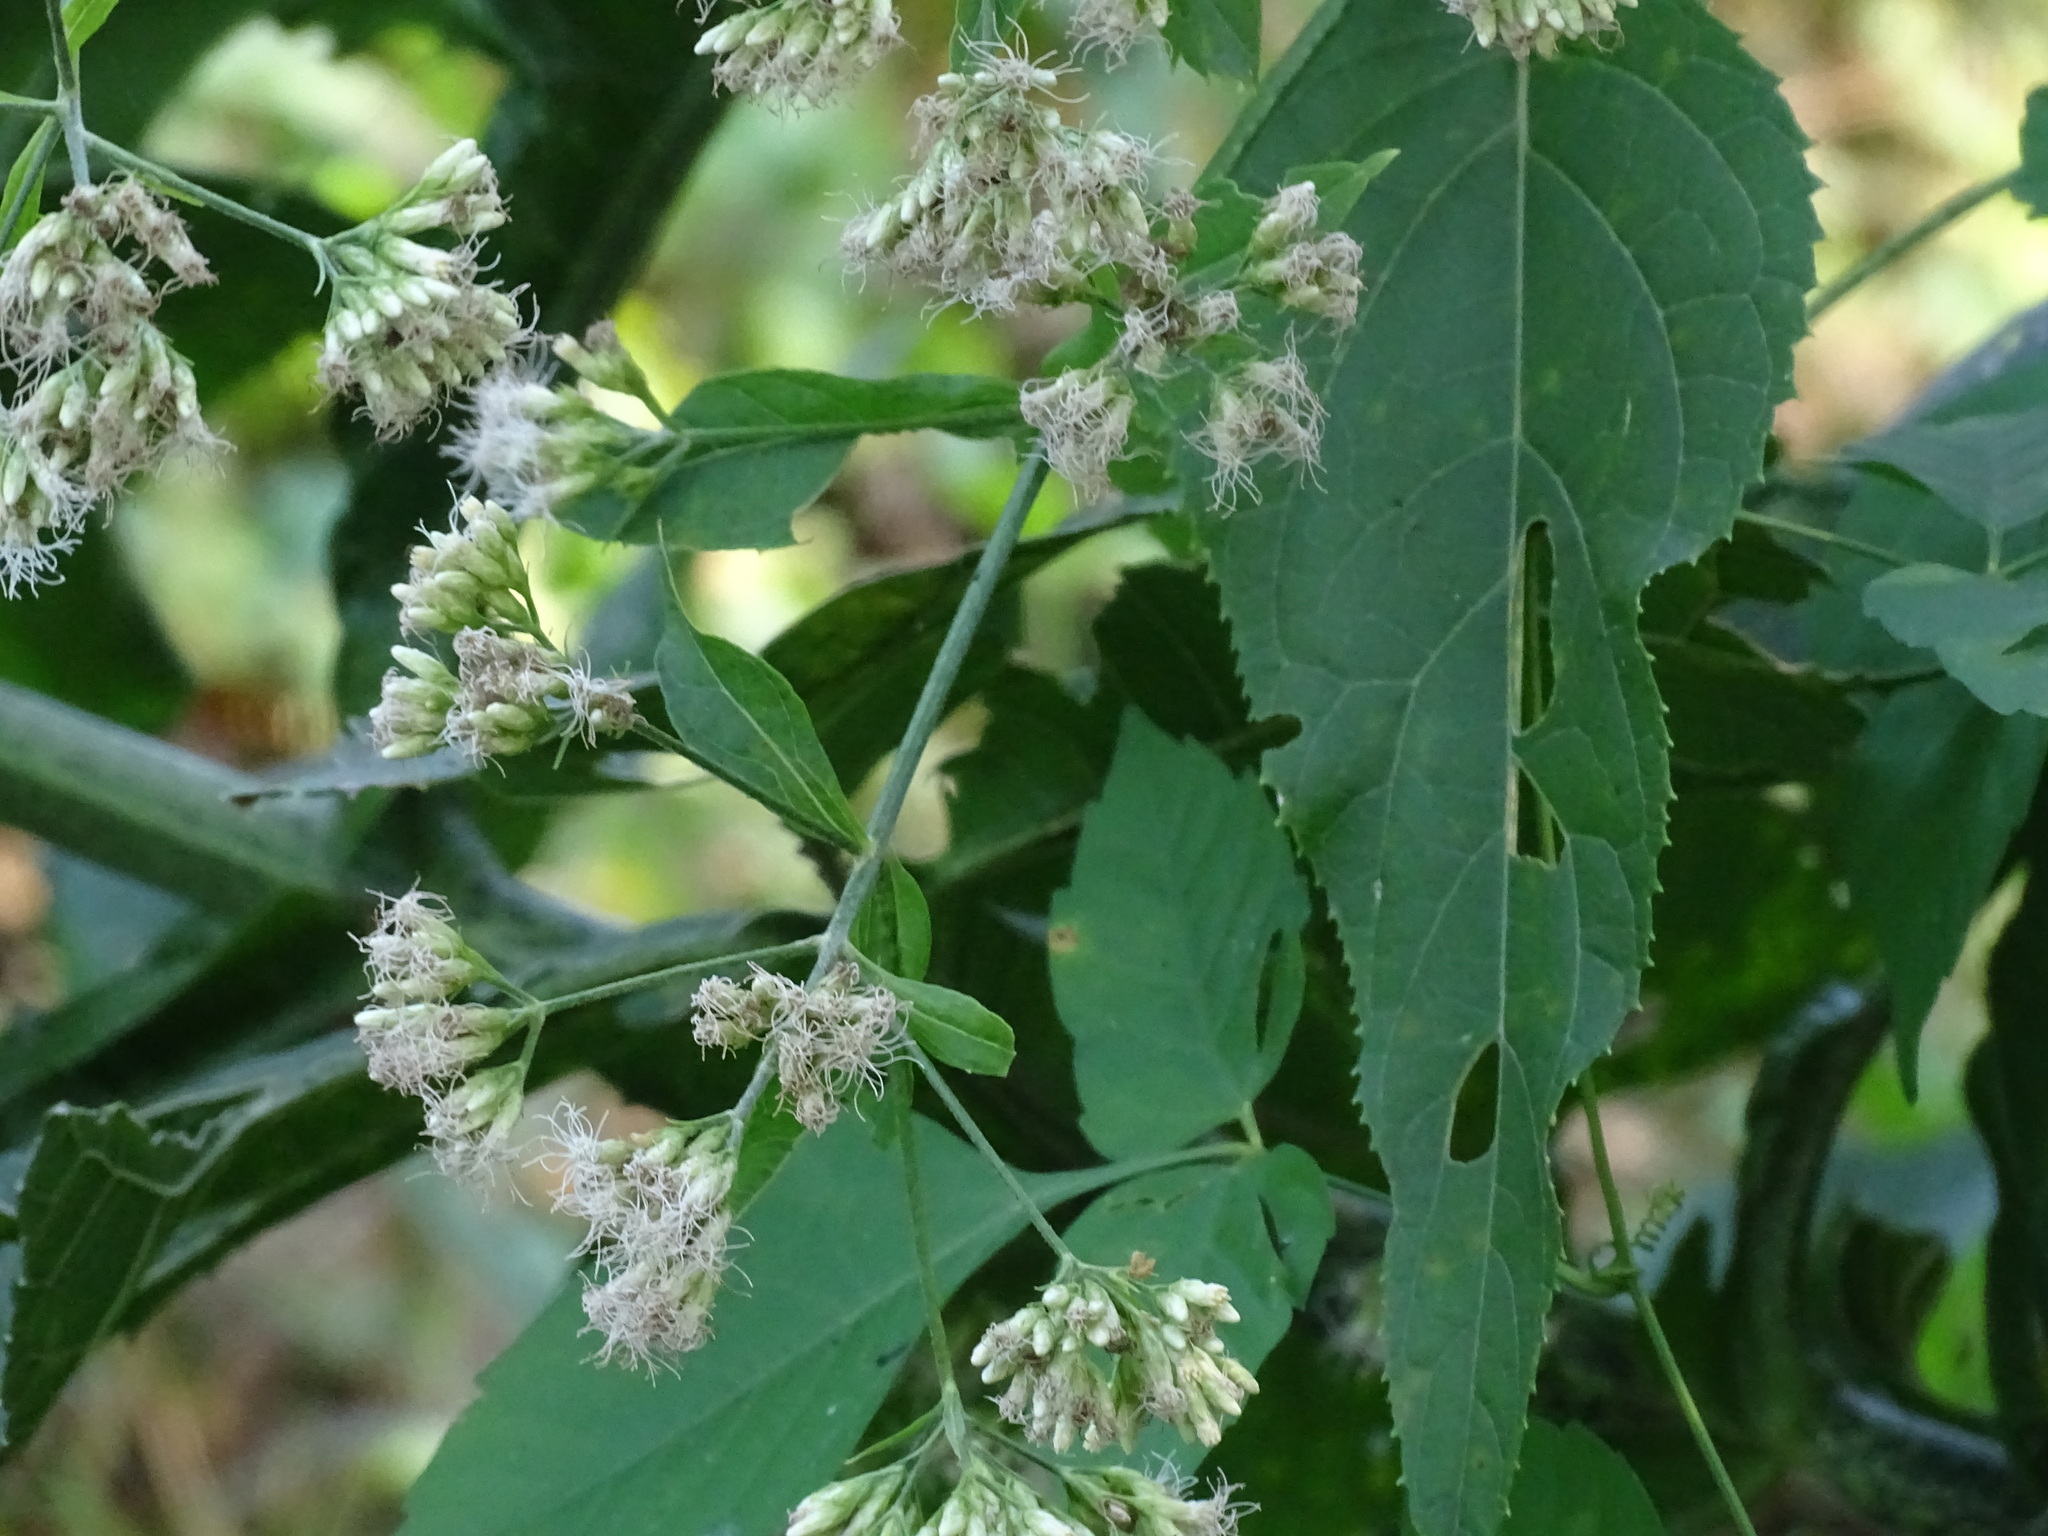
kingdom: Plantae
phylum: Tracheophyta
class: Magnoliopsida
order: Asterales
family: Asteraceae
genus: Critonia
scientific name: Critonia quadrangularis
